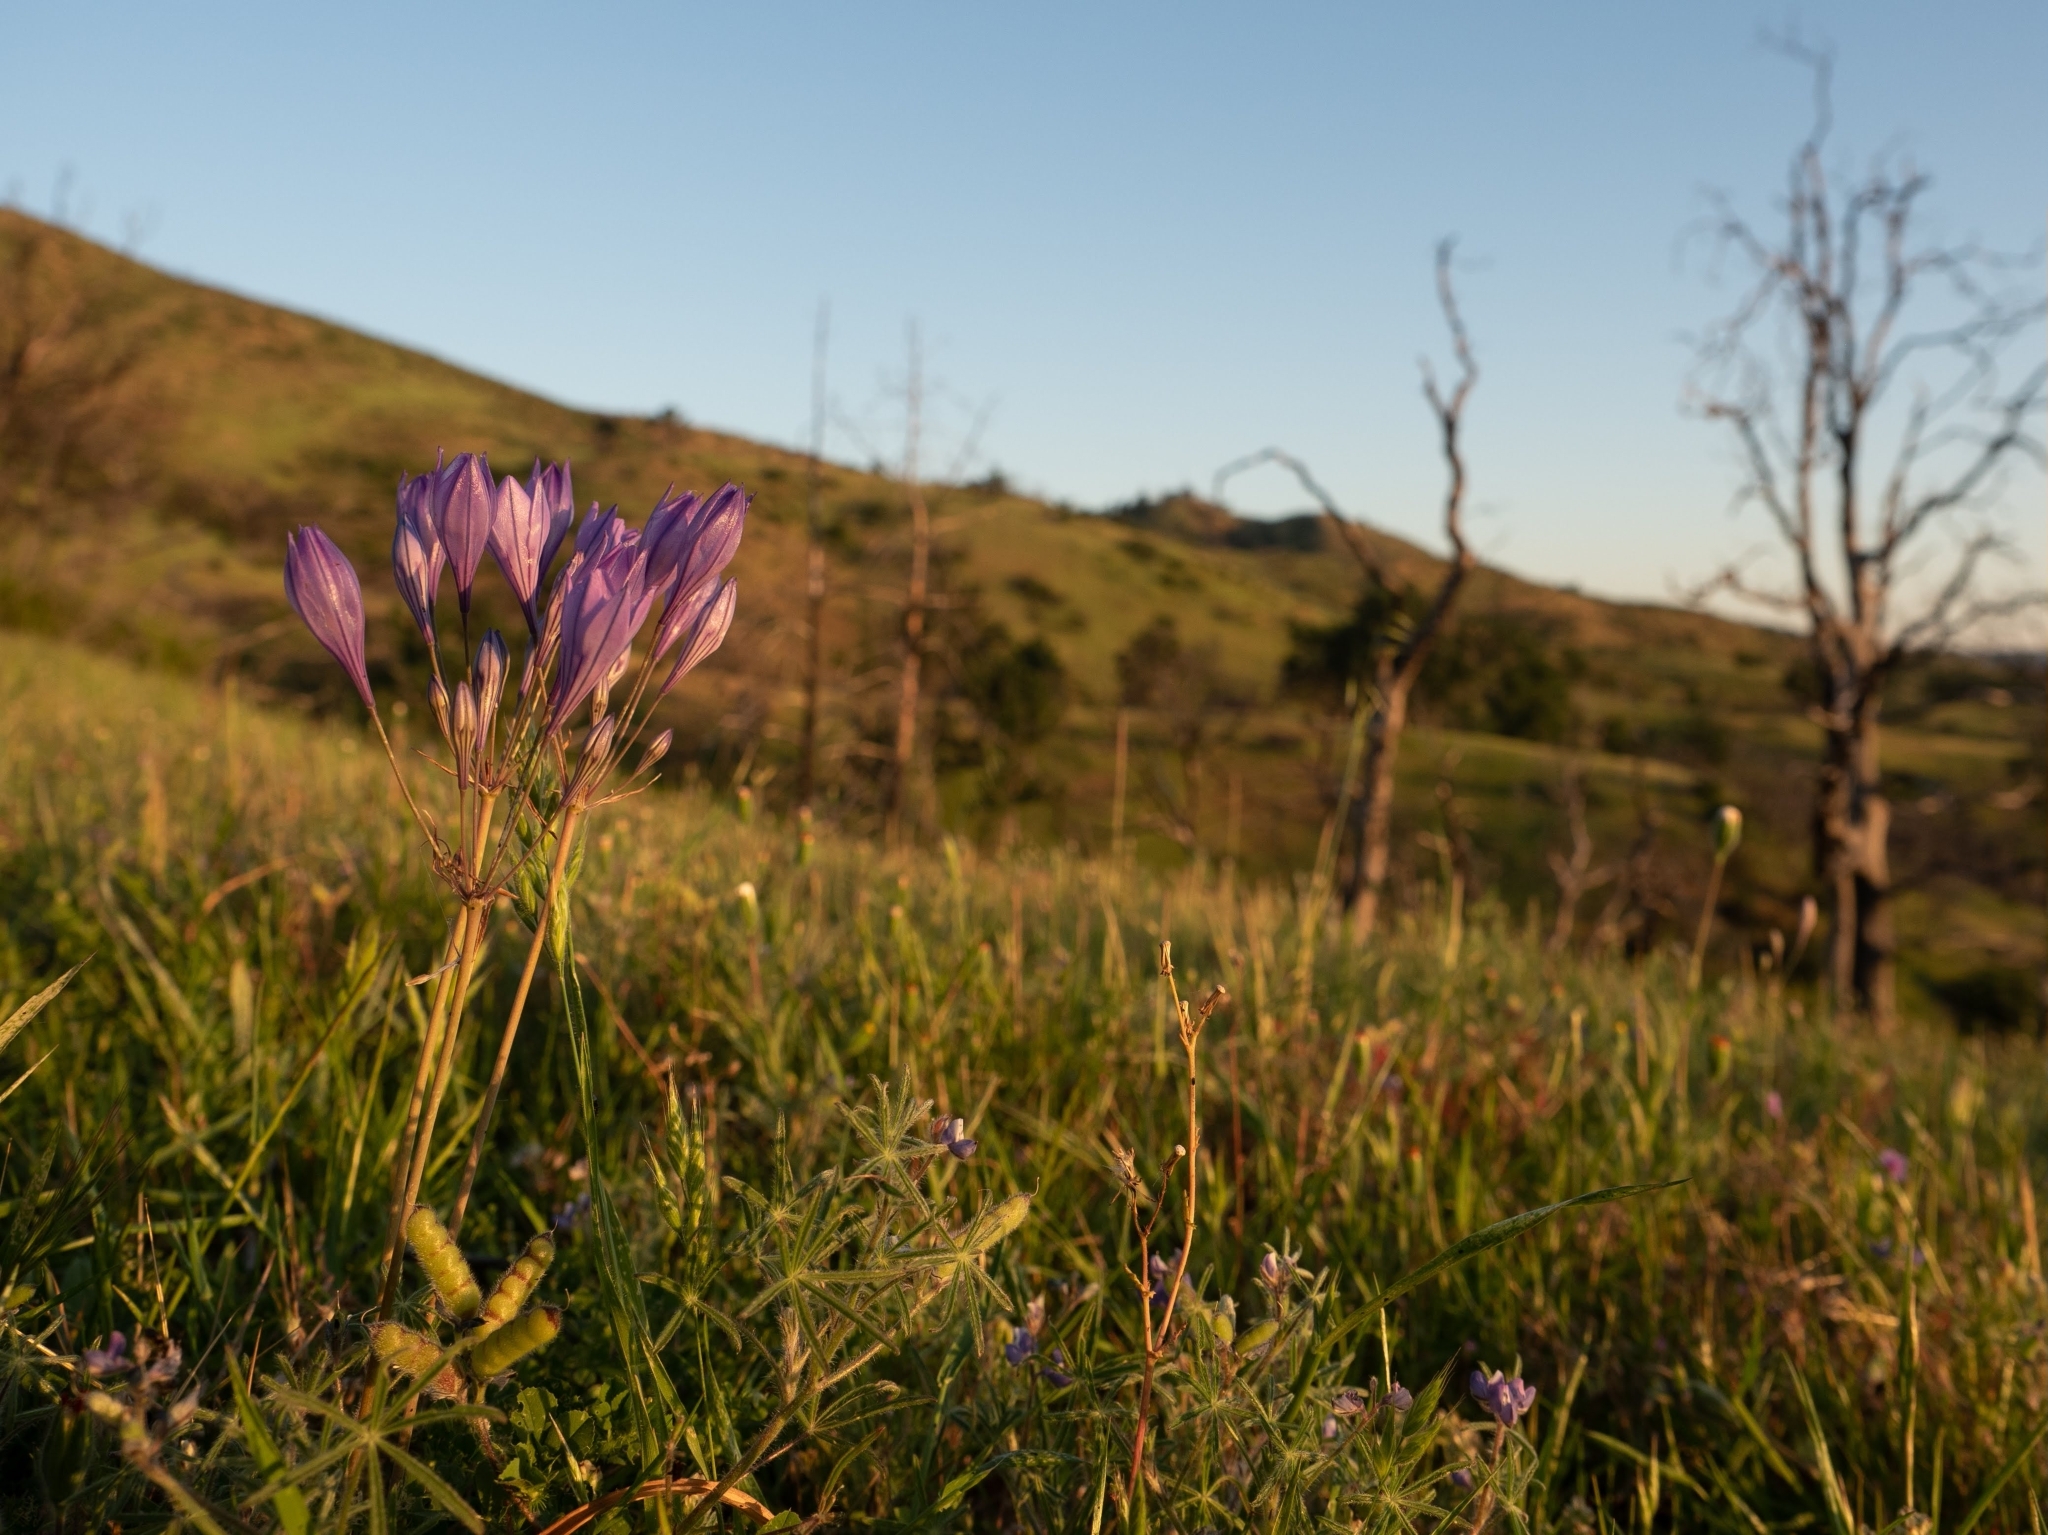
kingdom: Plantae
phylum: Tracheophyta
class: Liliopsida
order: Asparagales
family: Asparagaceae
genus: Triteleia
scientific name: Triteleia laxa
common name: Triplet-lily
